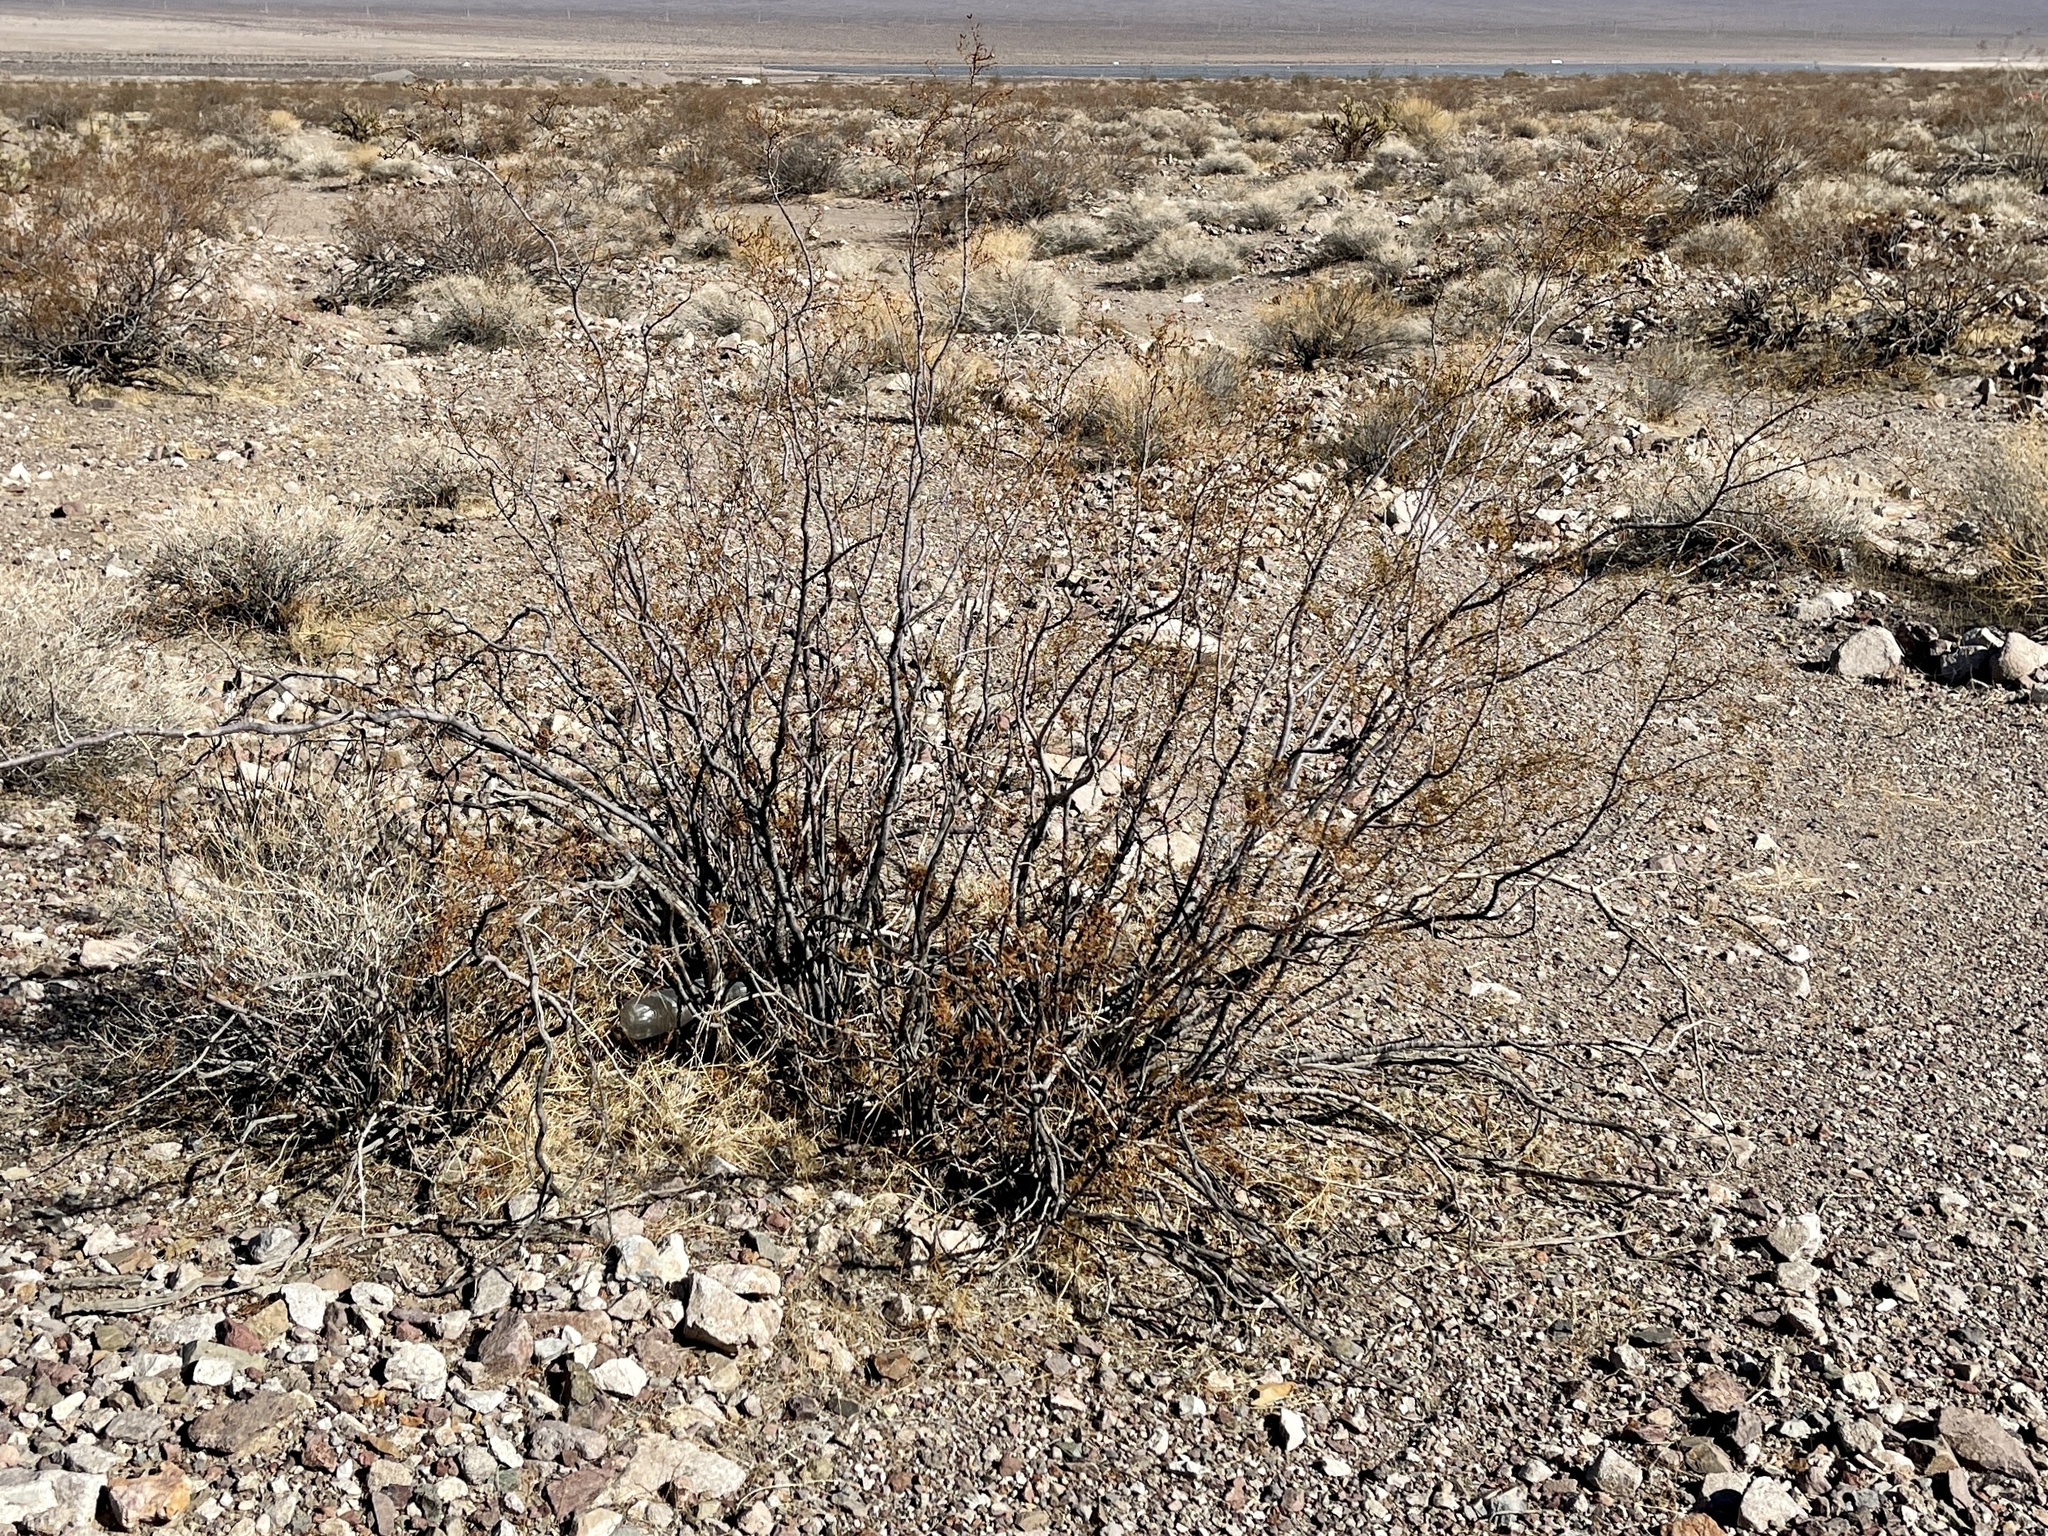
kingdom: Plantae
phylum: Tracheophyta
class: Magnoliopsida
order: Zygophyllales
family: Zygophyllaceae
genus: Larrea
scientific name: Larrea tridentata
